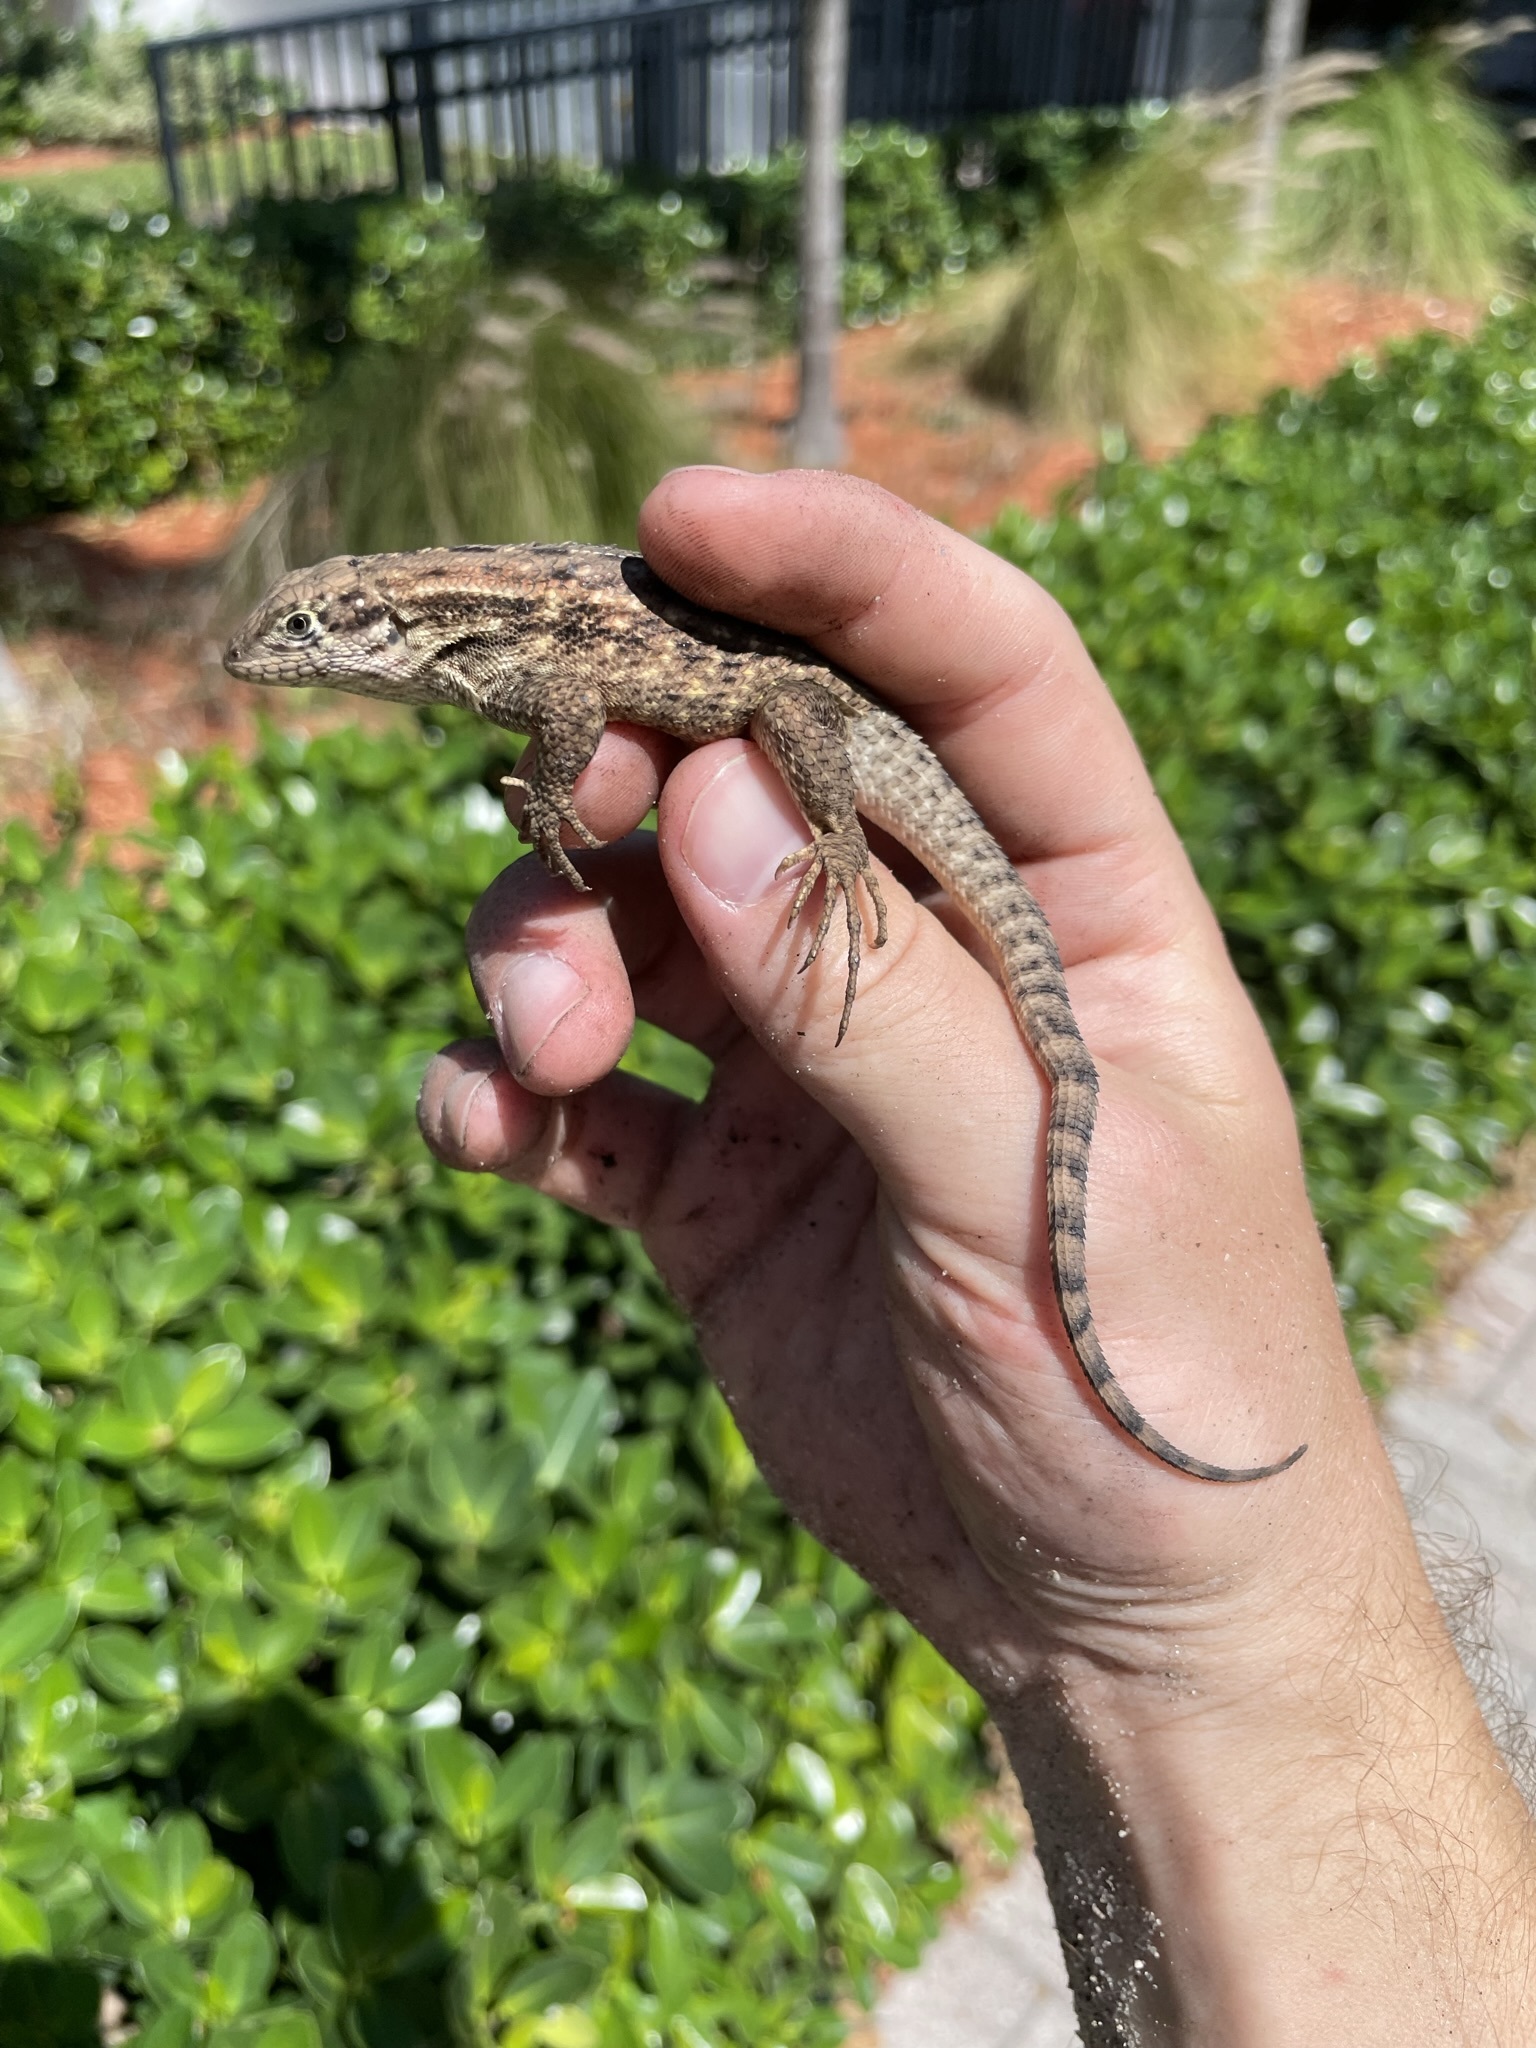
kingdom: Animalia
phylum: Chordata
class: Squamata
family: Leiocephalidae
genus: Leiocephalus
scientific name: Leiocephalus carinatus
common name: Northern curly-tailed lizard
